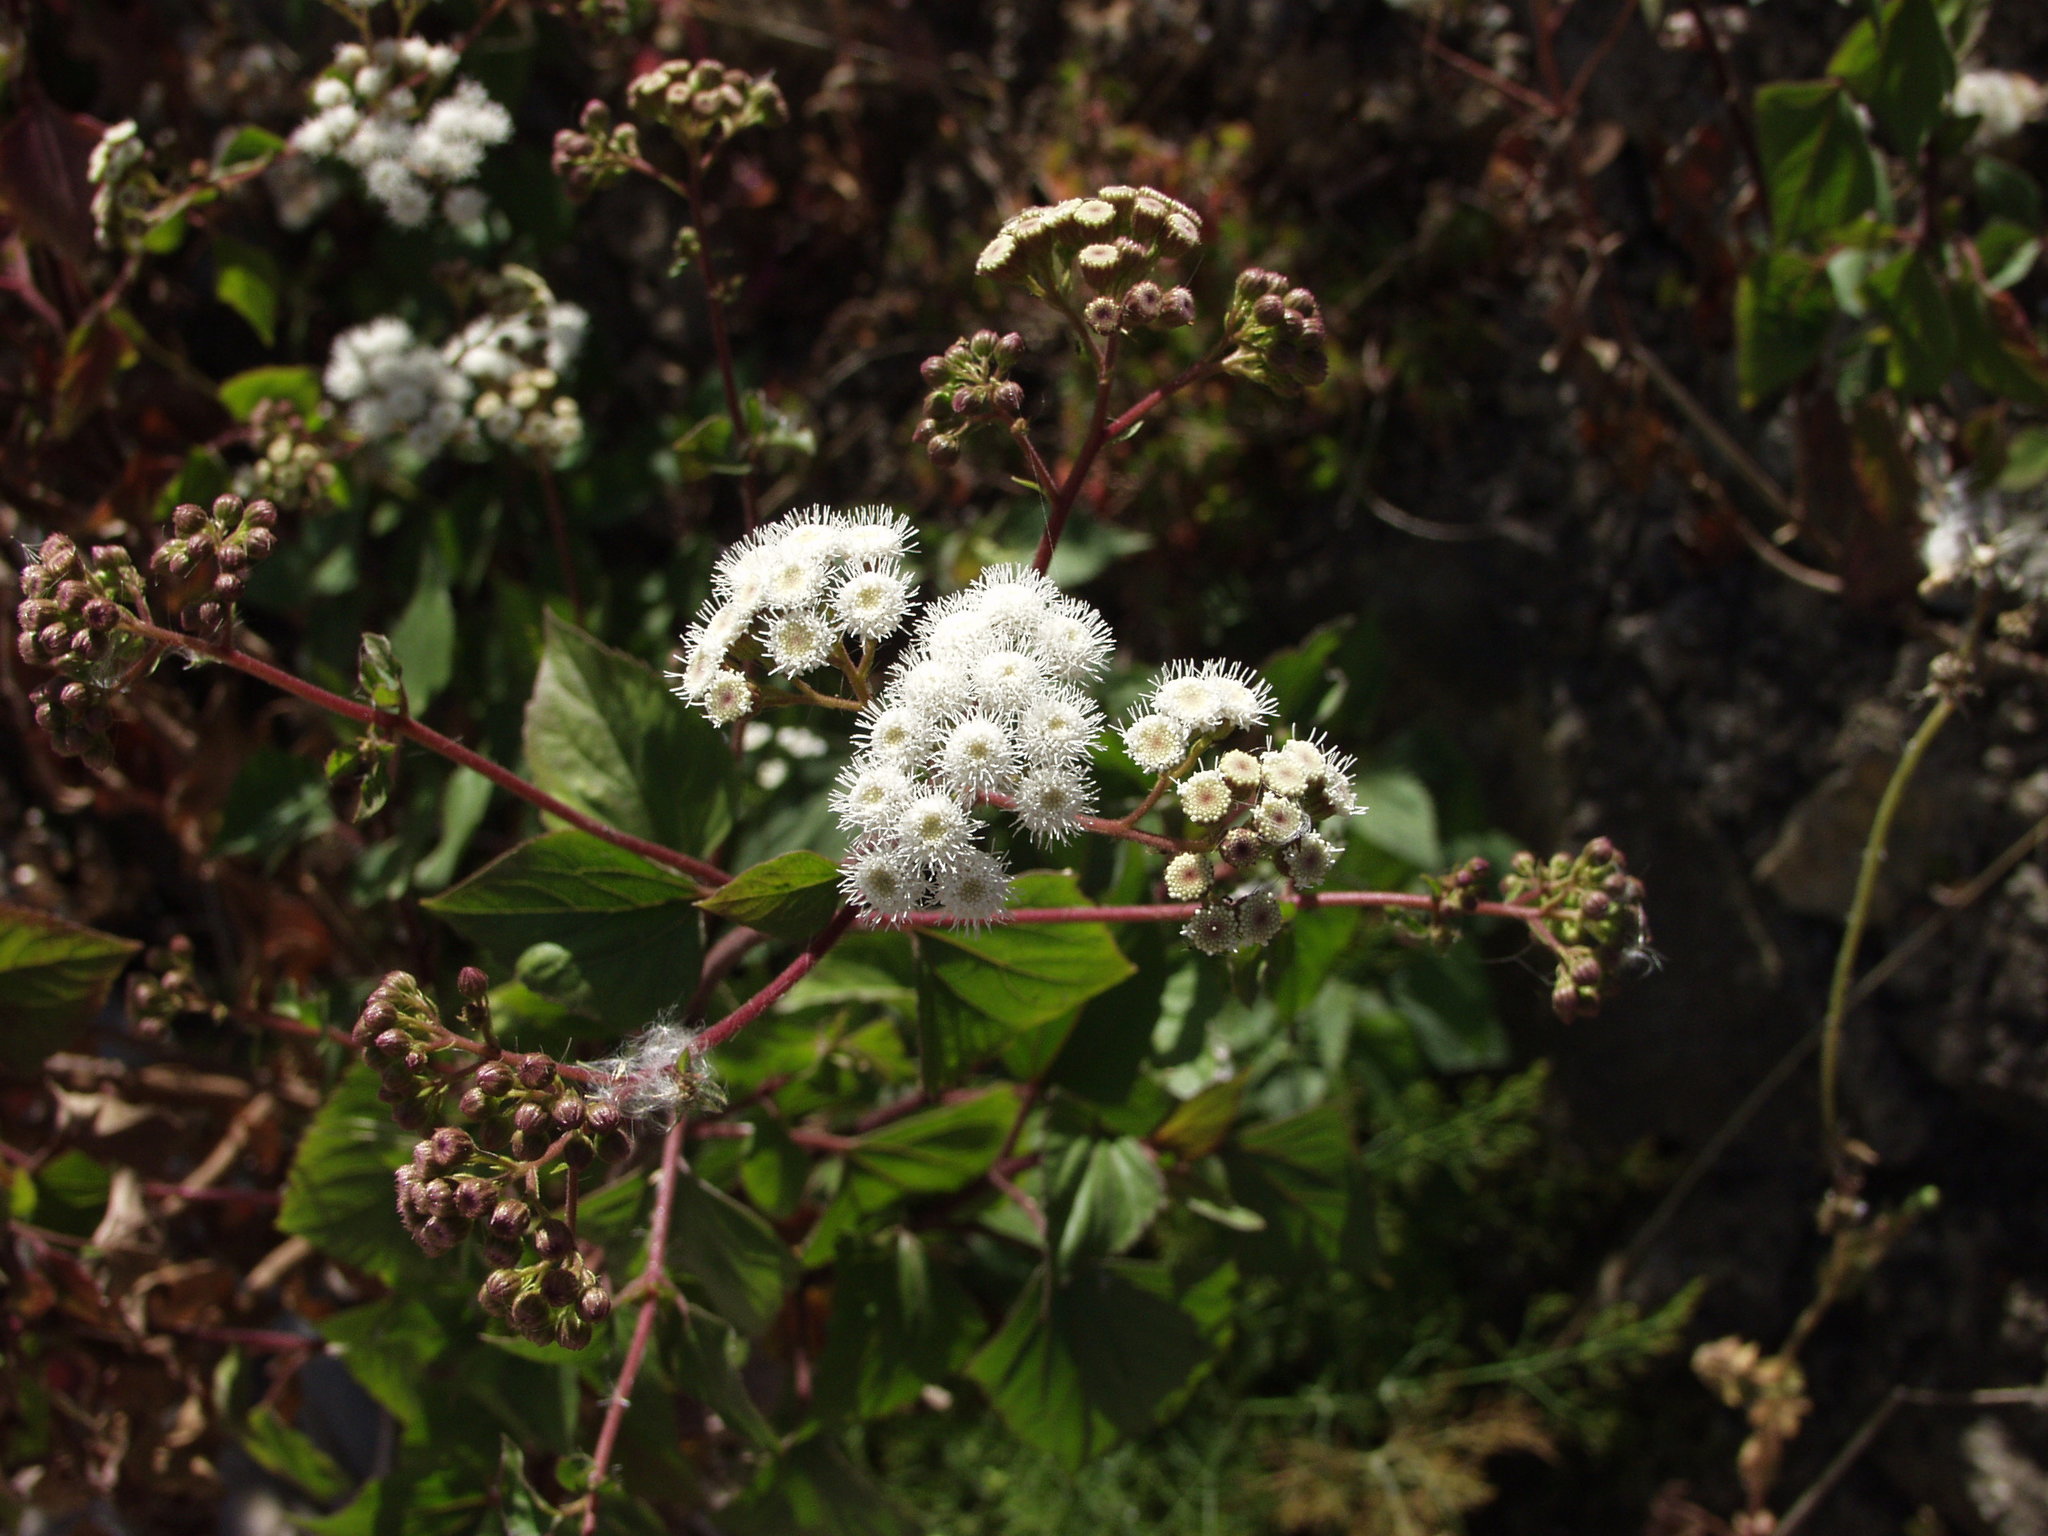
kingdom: Plantae
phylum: Tracheophyta
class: Magnoliopsida
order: Asterales
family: Asteraceae
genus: Ageratina
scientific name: Ageratina adenophora
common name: Sticky snakeroot
